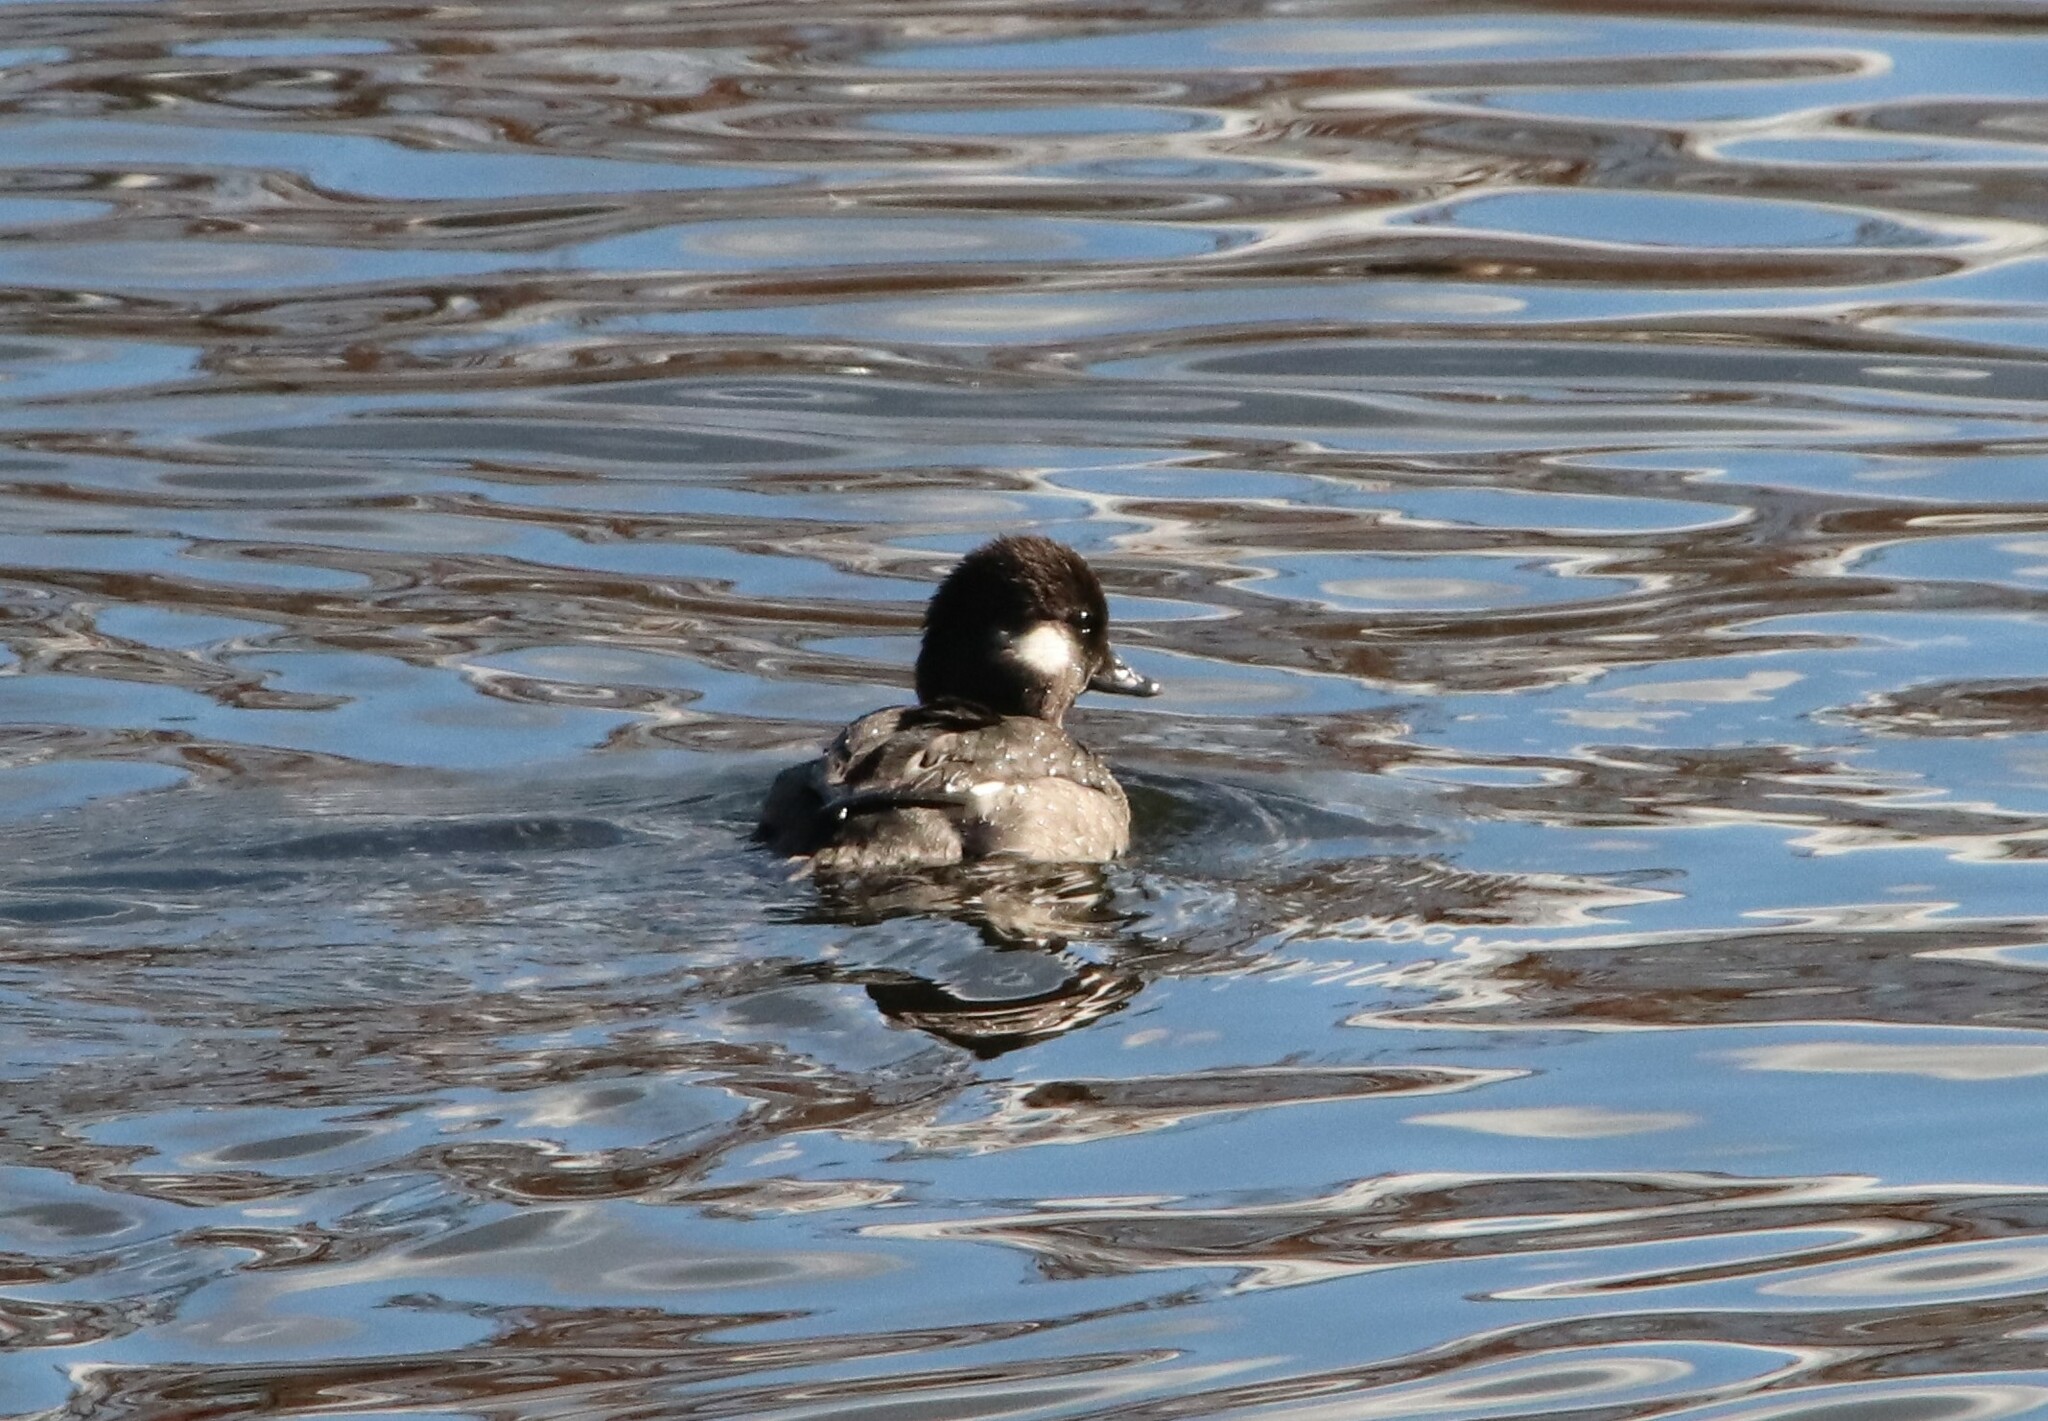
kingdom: Animalia
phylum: Chordata
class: Aves
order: Anseriformes
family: Anatidae
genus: Bucephala
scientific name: Bucephala albeola
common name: Bufflehead
